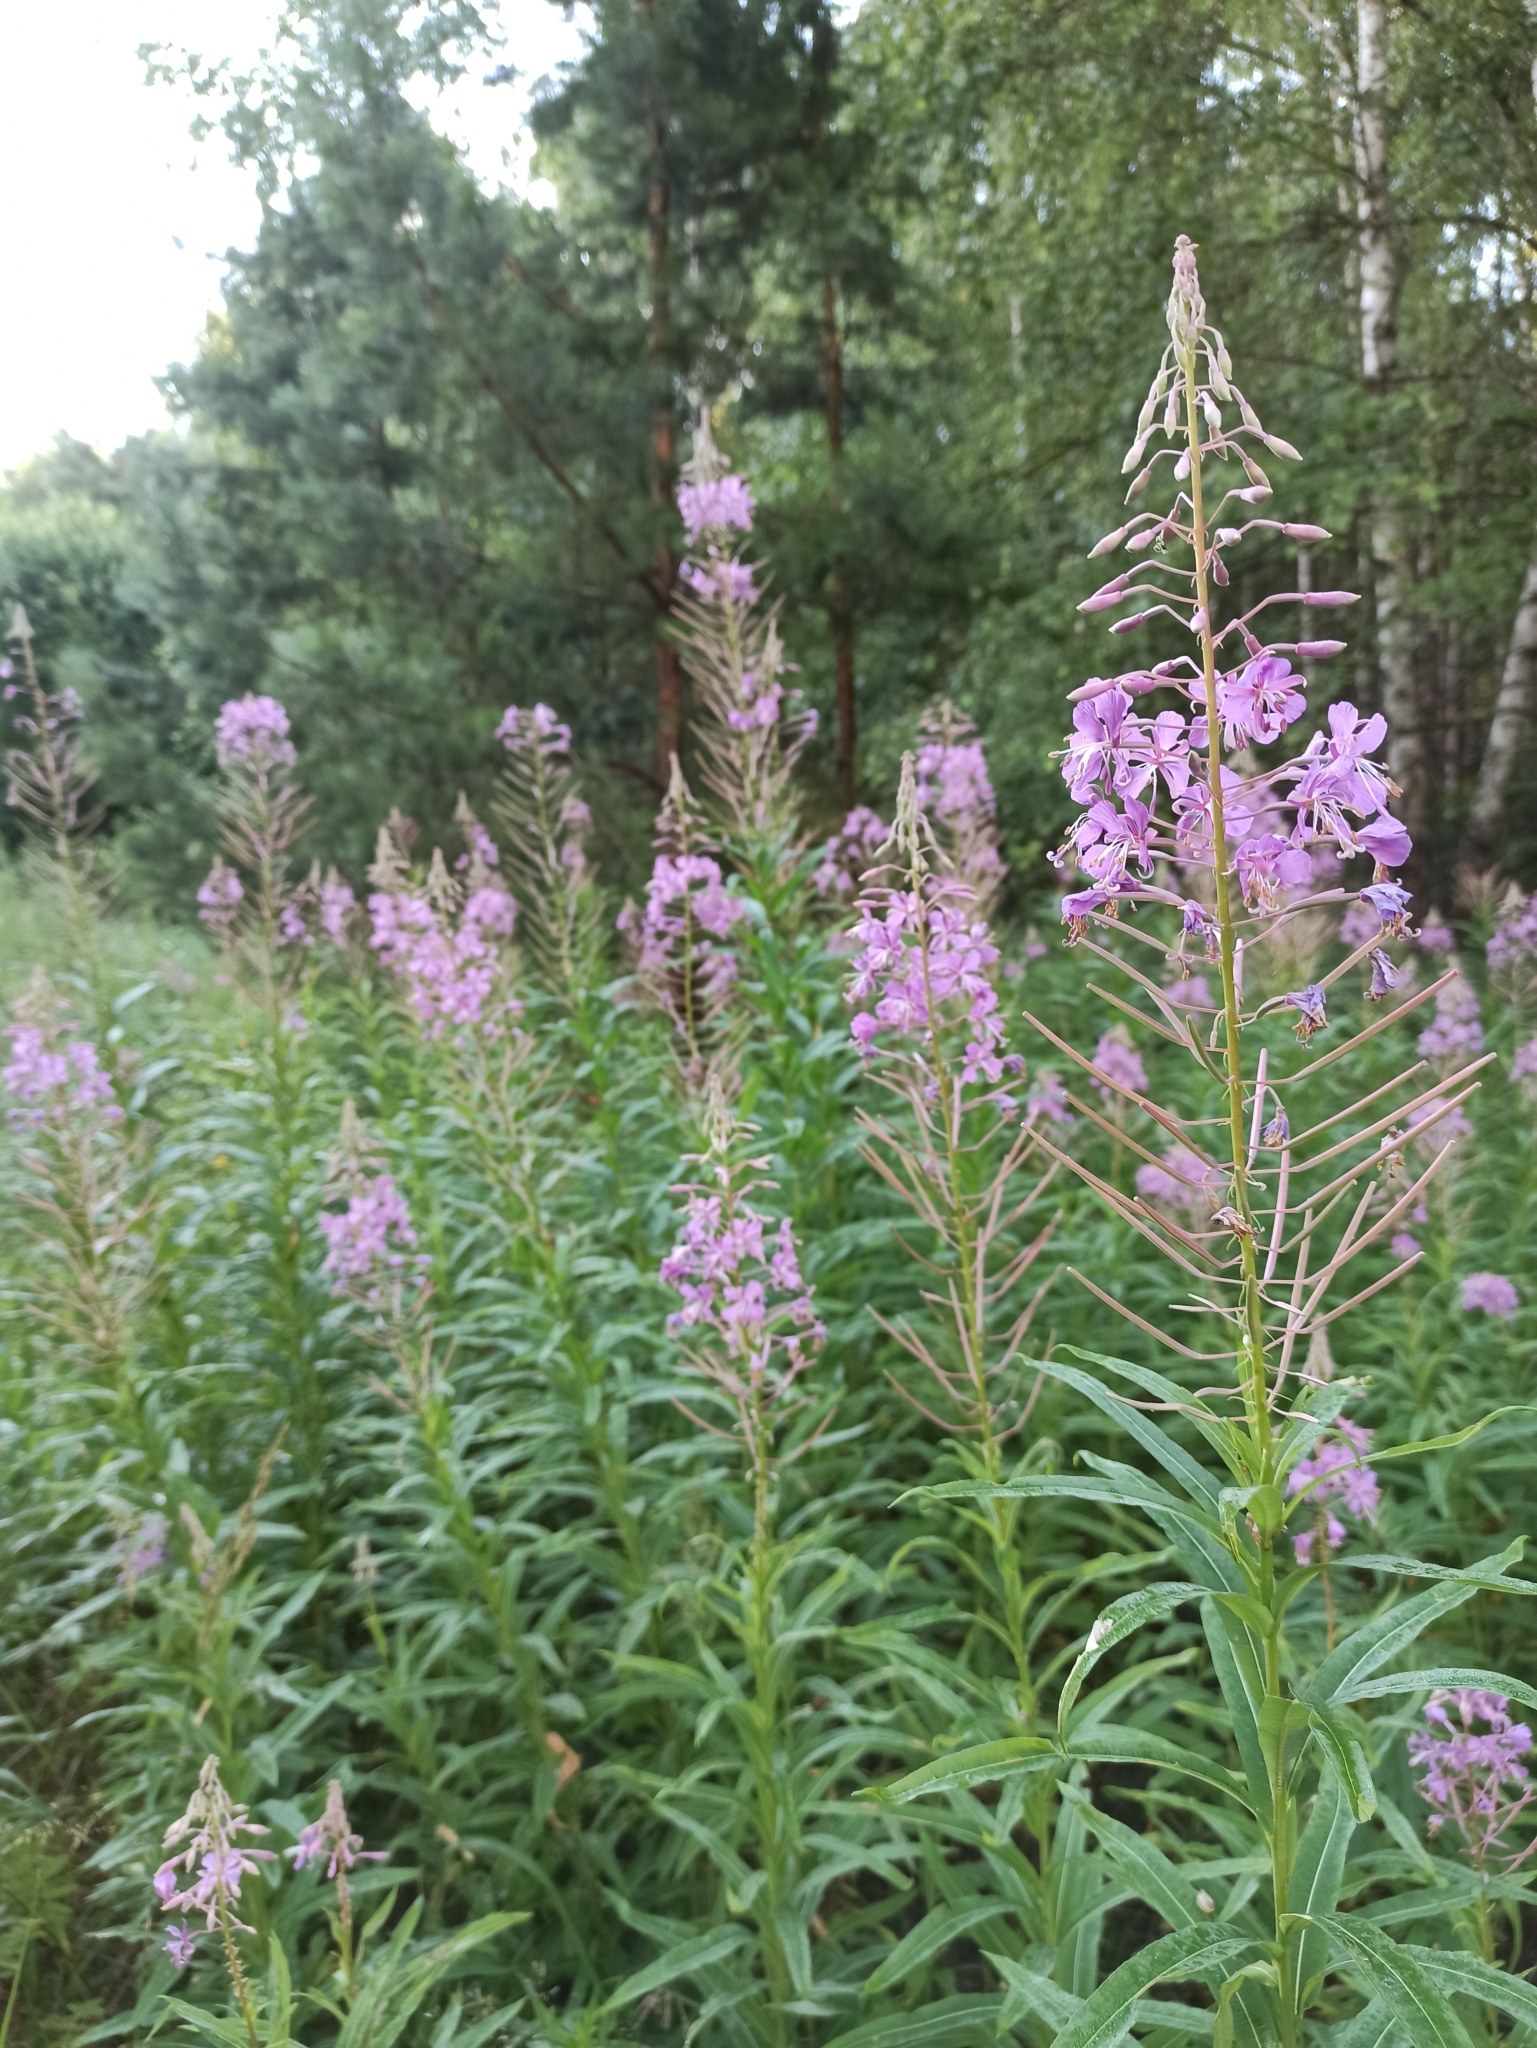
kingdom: Plantae
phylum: Tracheophyta
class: Magnoliopsida
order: Myrtales
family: Onagraceae
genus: Chamaenerion
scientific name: Chamaenerion angustifolium
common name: Fireweed
